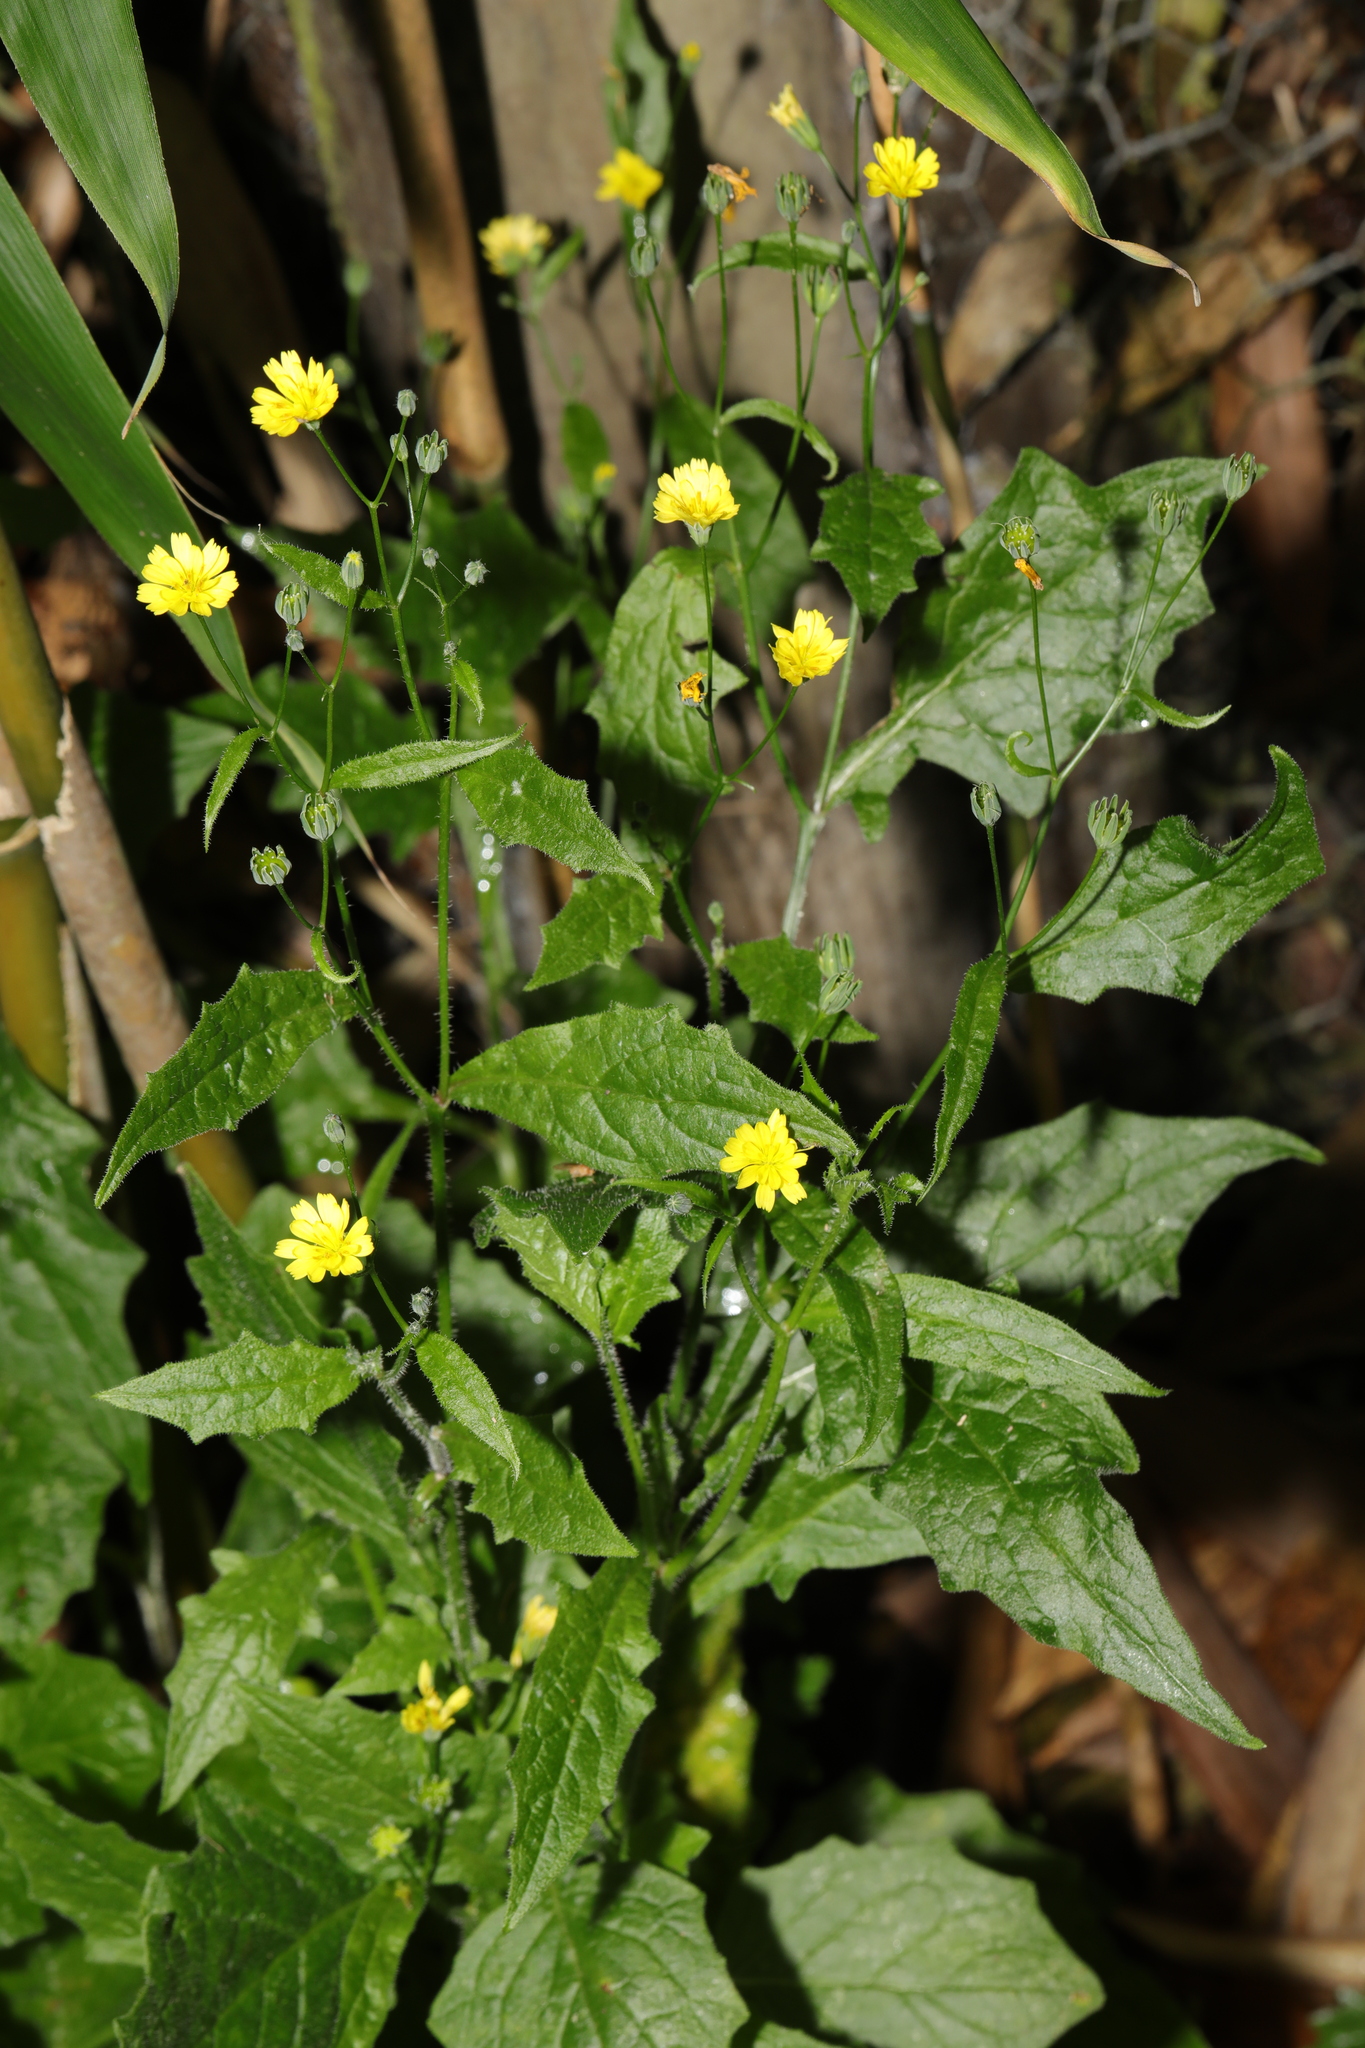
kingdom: Plantae
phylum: Tracheophyta
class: Magnoliopsida
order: Asterales
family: Asteraceae
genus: Lapsana
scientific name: Lapsana communis
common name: Nipplewort
